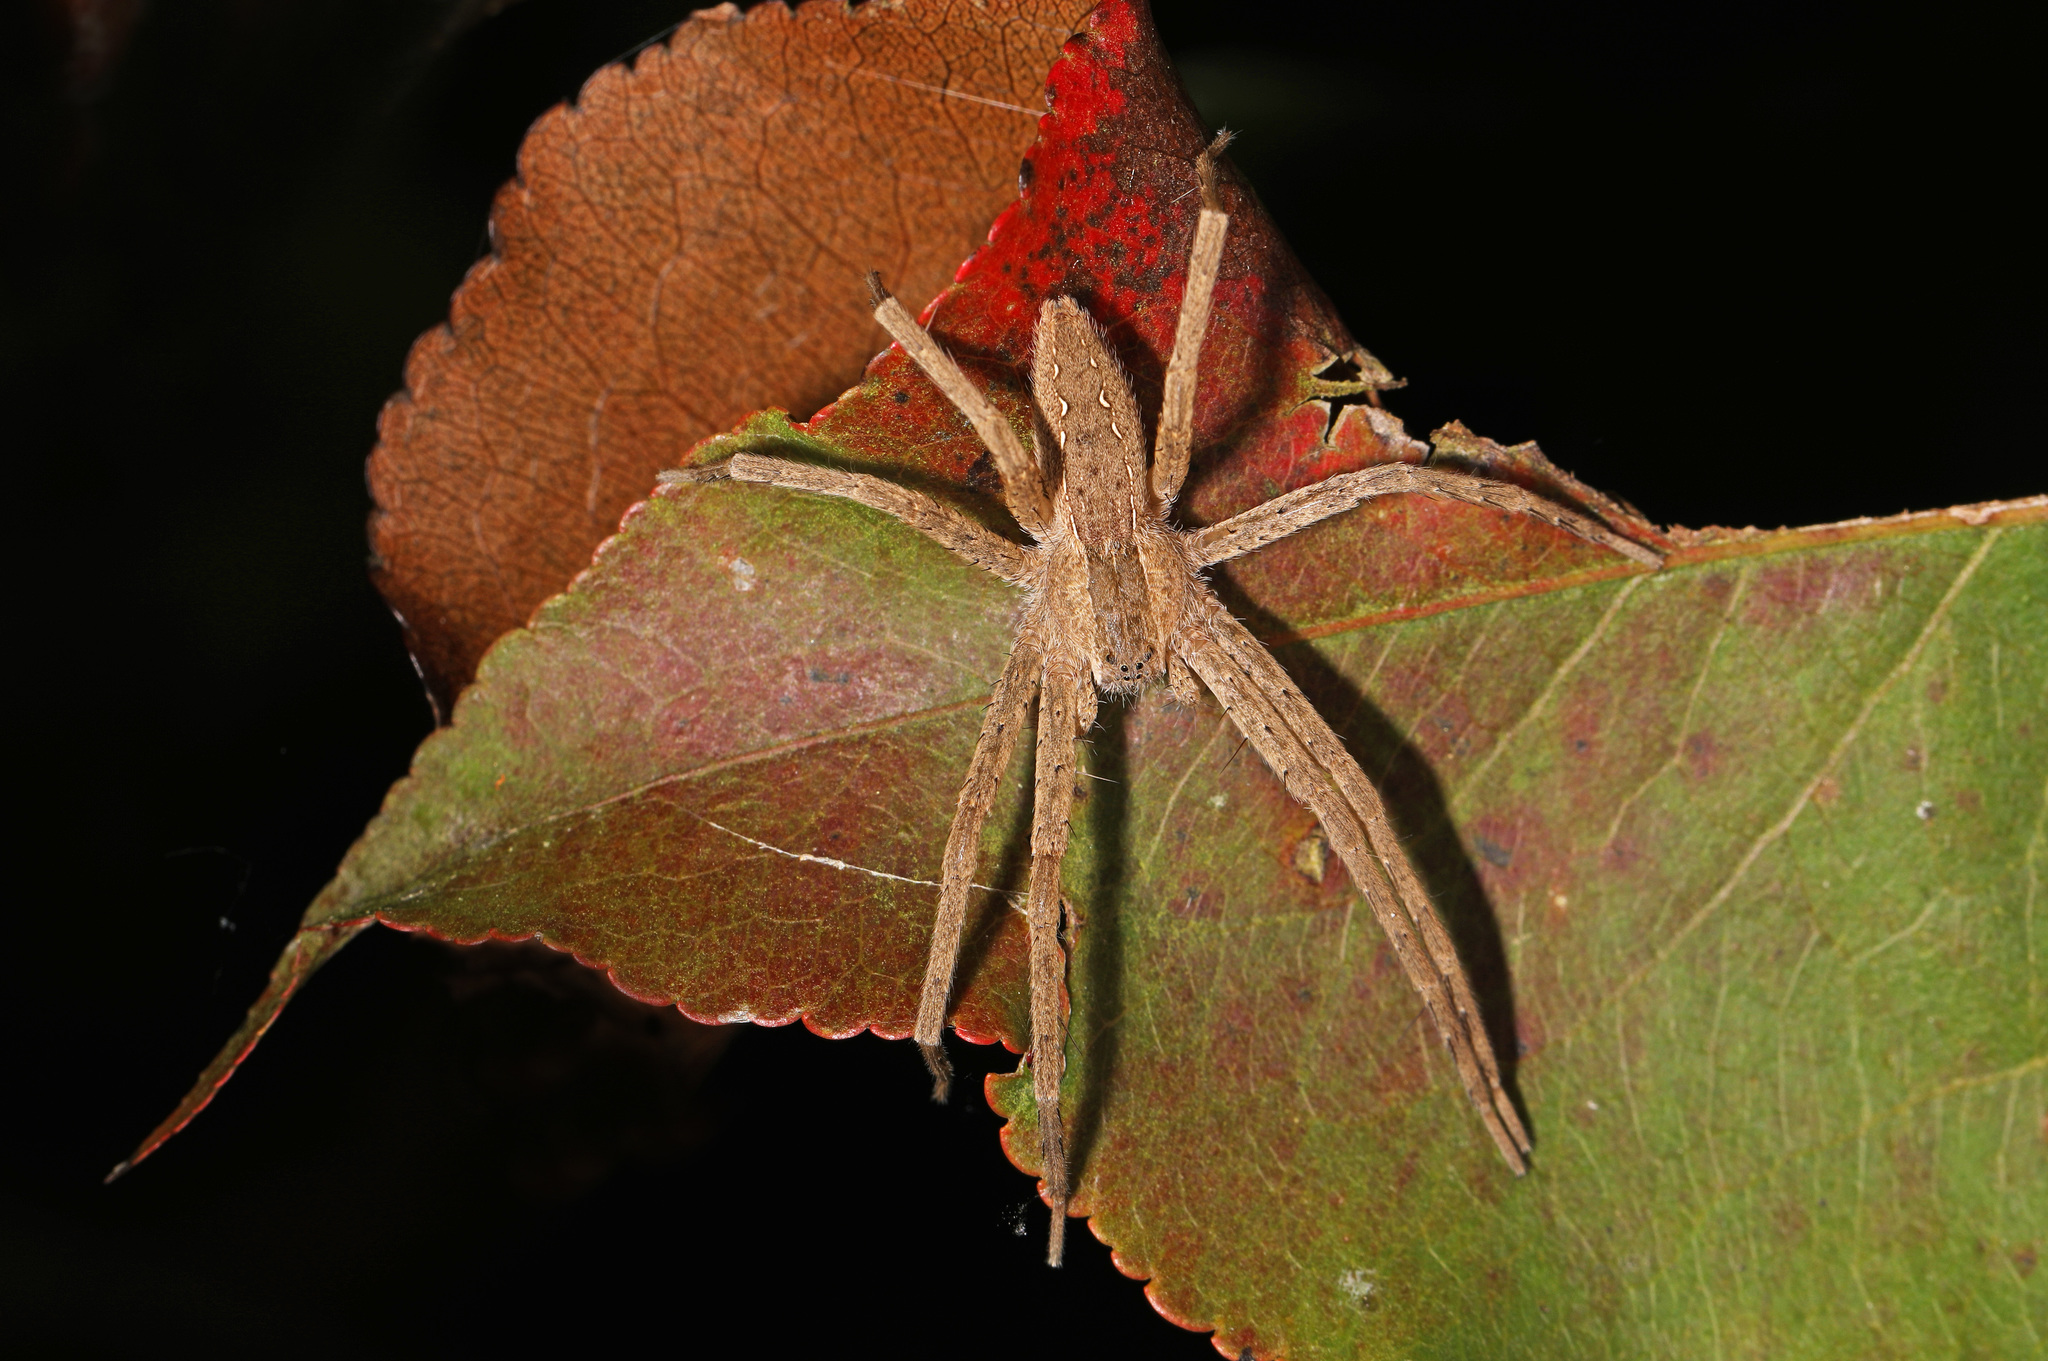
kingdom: Animalia
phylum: Arthropoda
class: Arachnida
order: Araneae
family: Pisauridae
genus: Pisaurina
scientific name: Pisaurina mira
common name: American nursery web spider
